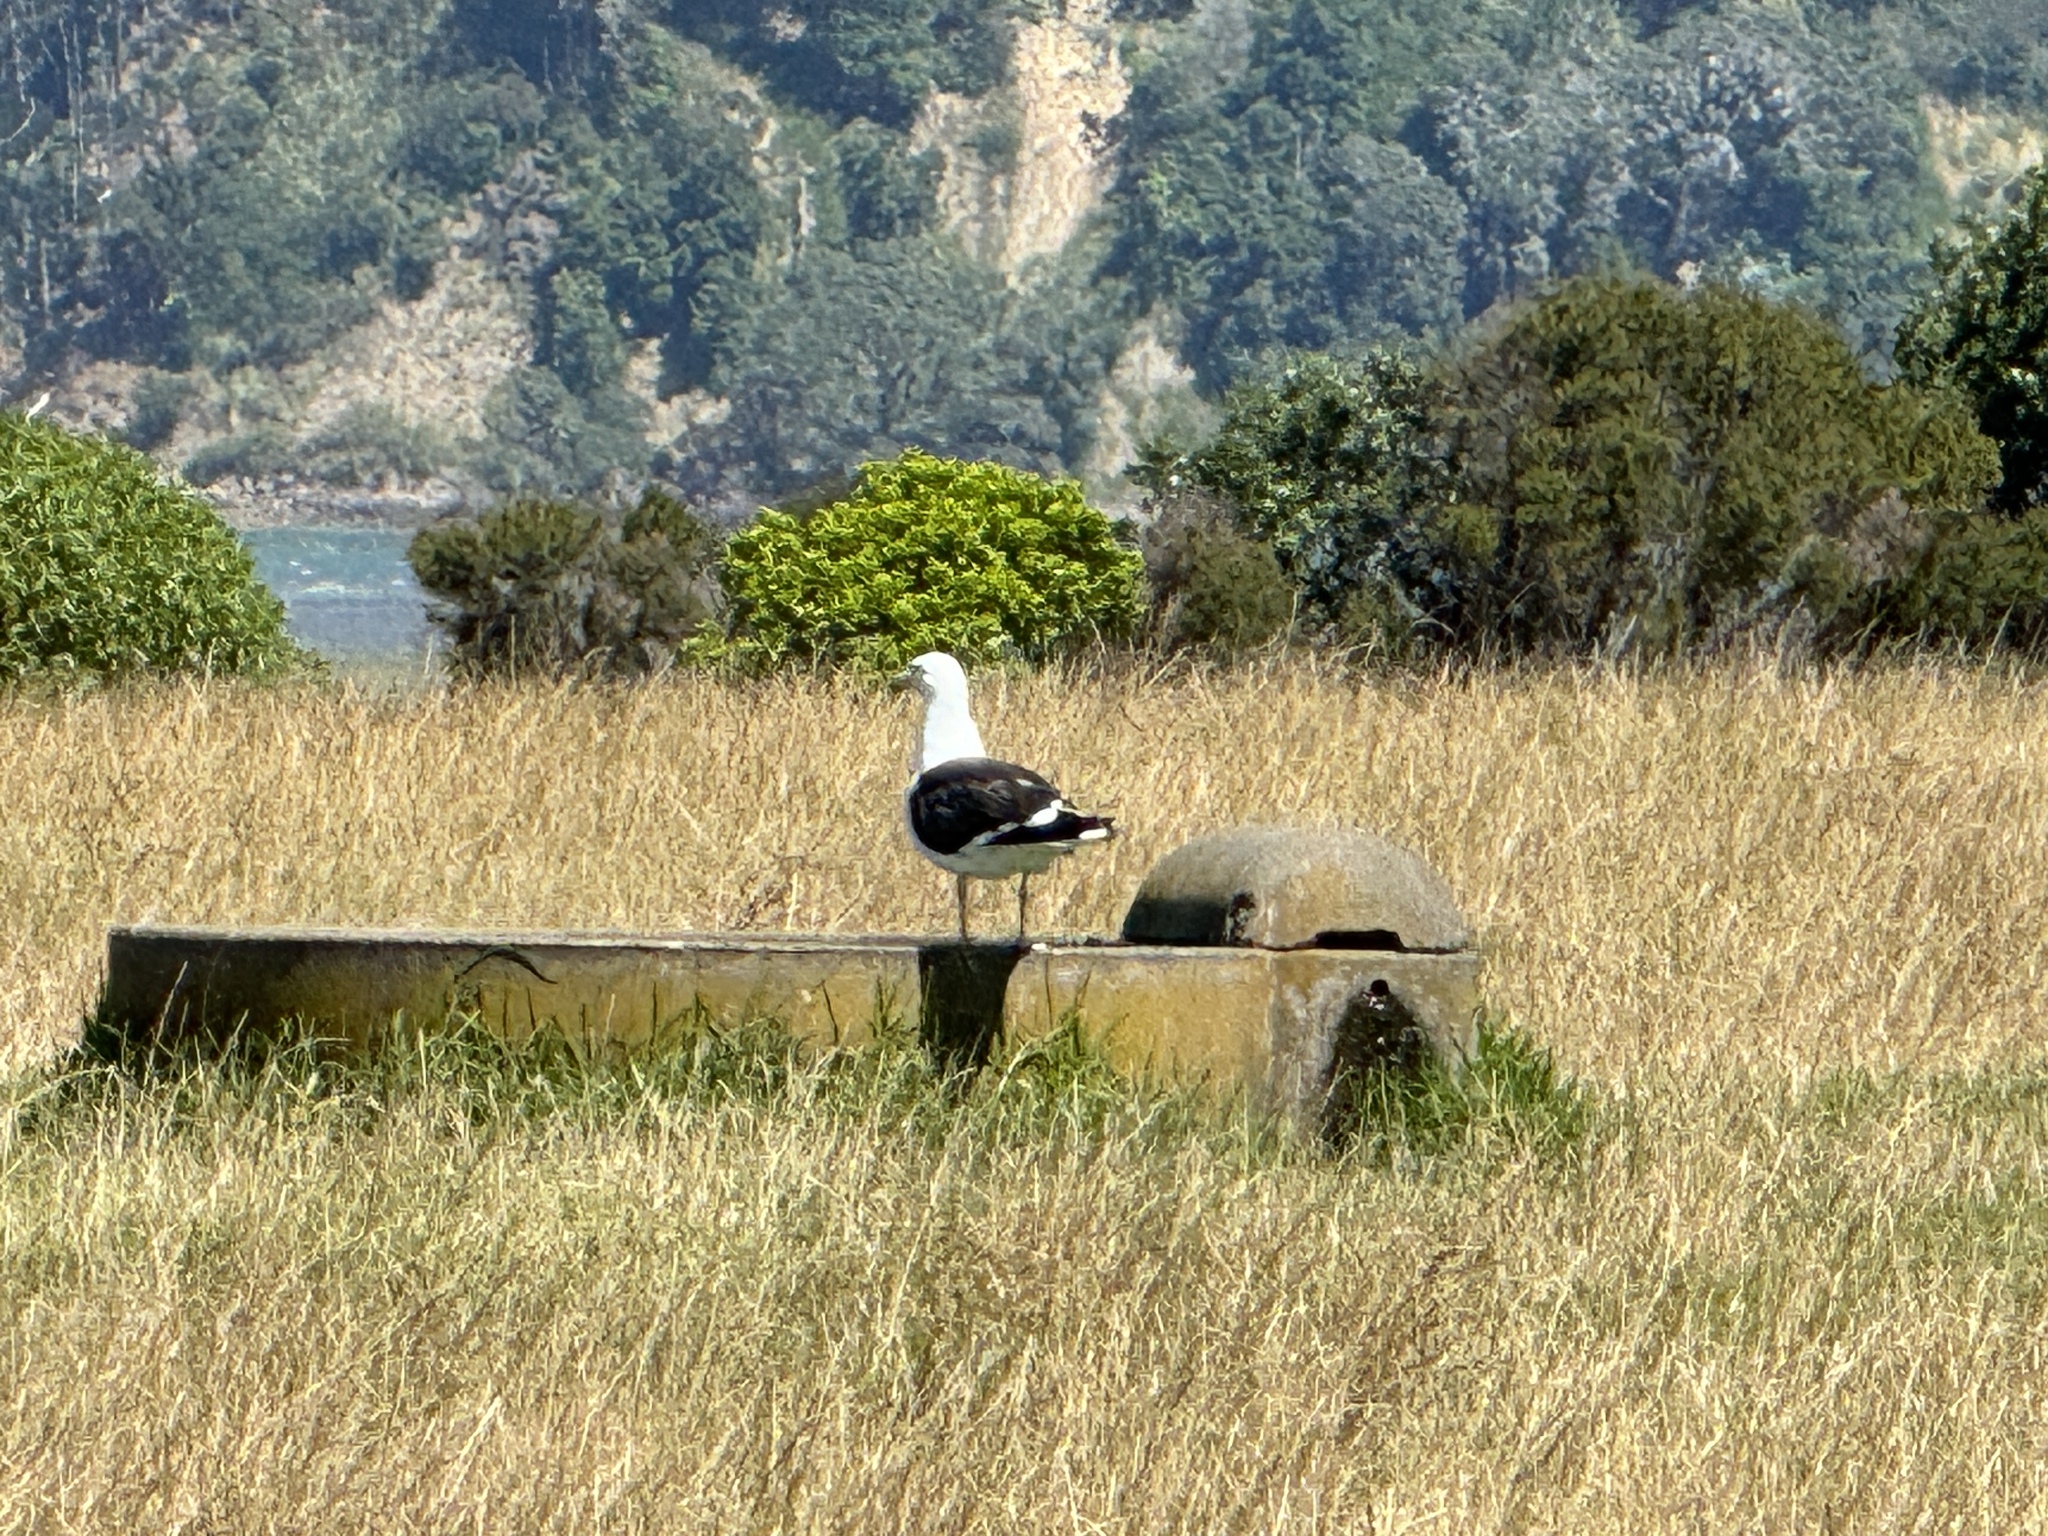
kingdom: Animalia
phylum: Chordata
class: Aves
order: Charadriiformes
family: Laridae
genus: Larus
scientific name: Larus dominicanus
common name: Kelp gull
